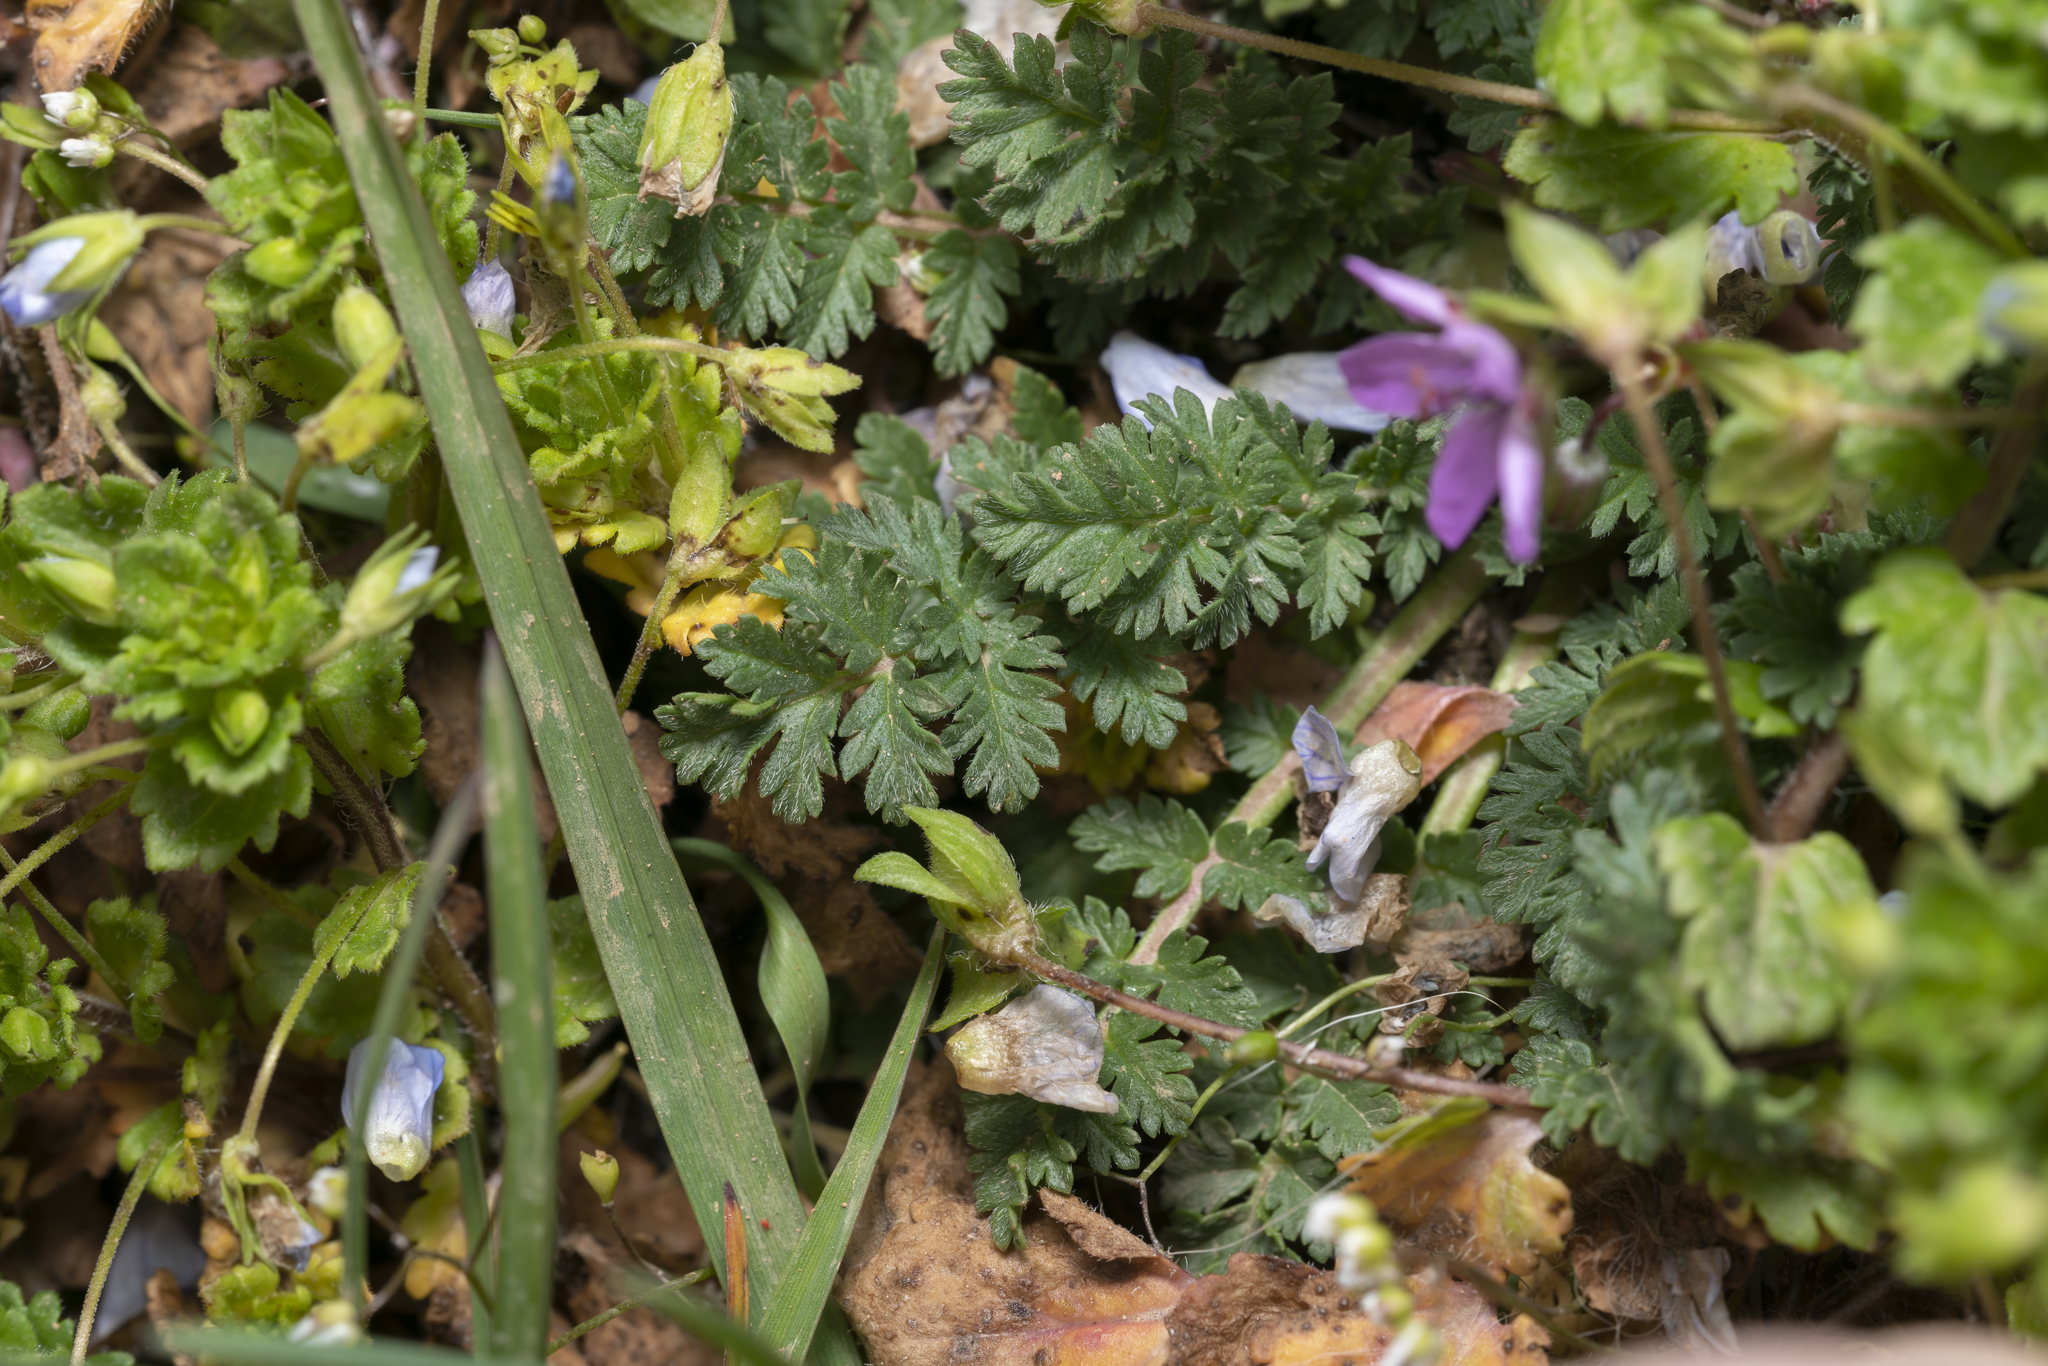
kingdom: Plantae
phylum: Tracheophyta
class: Magnoliopsida
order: Geraniales
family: Geraniaceae
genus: Erodium
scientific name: Erodium cicutarium
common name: Common stork's-bill
